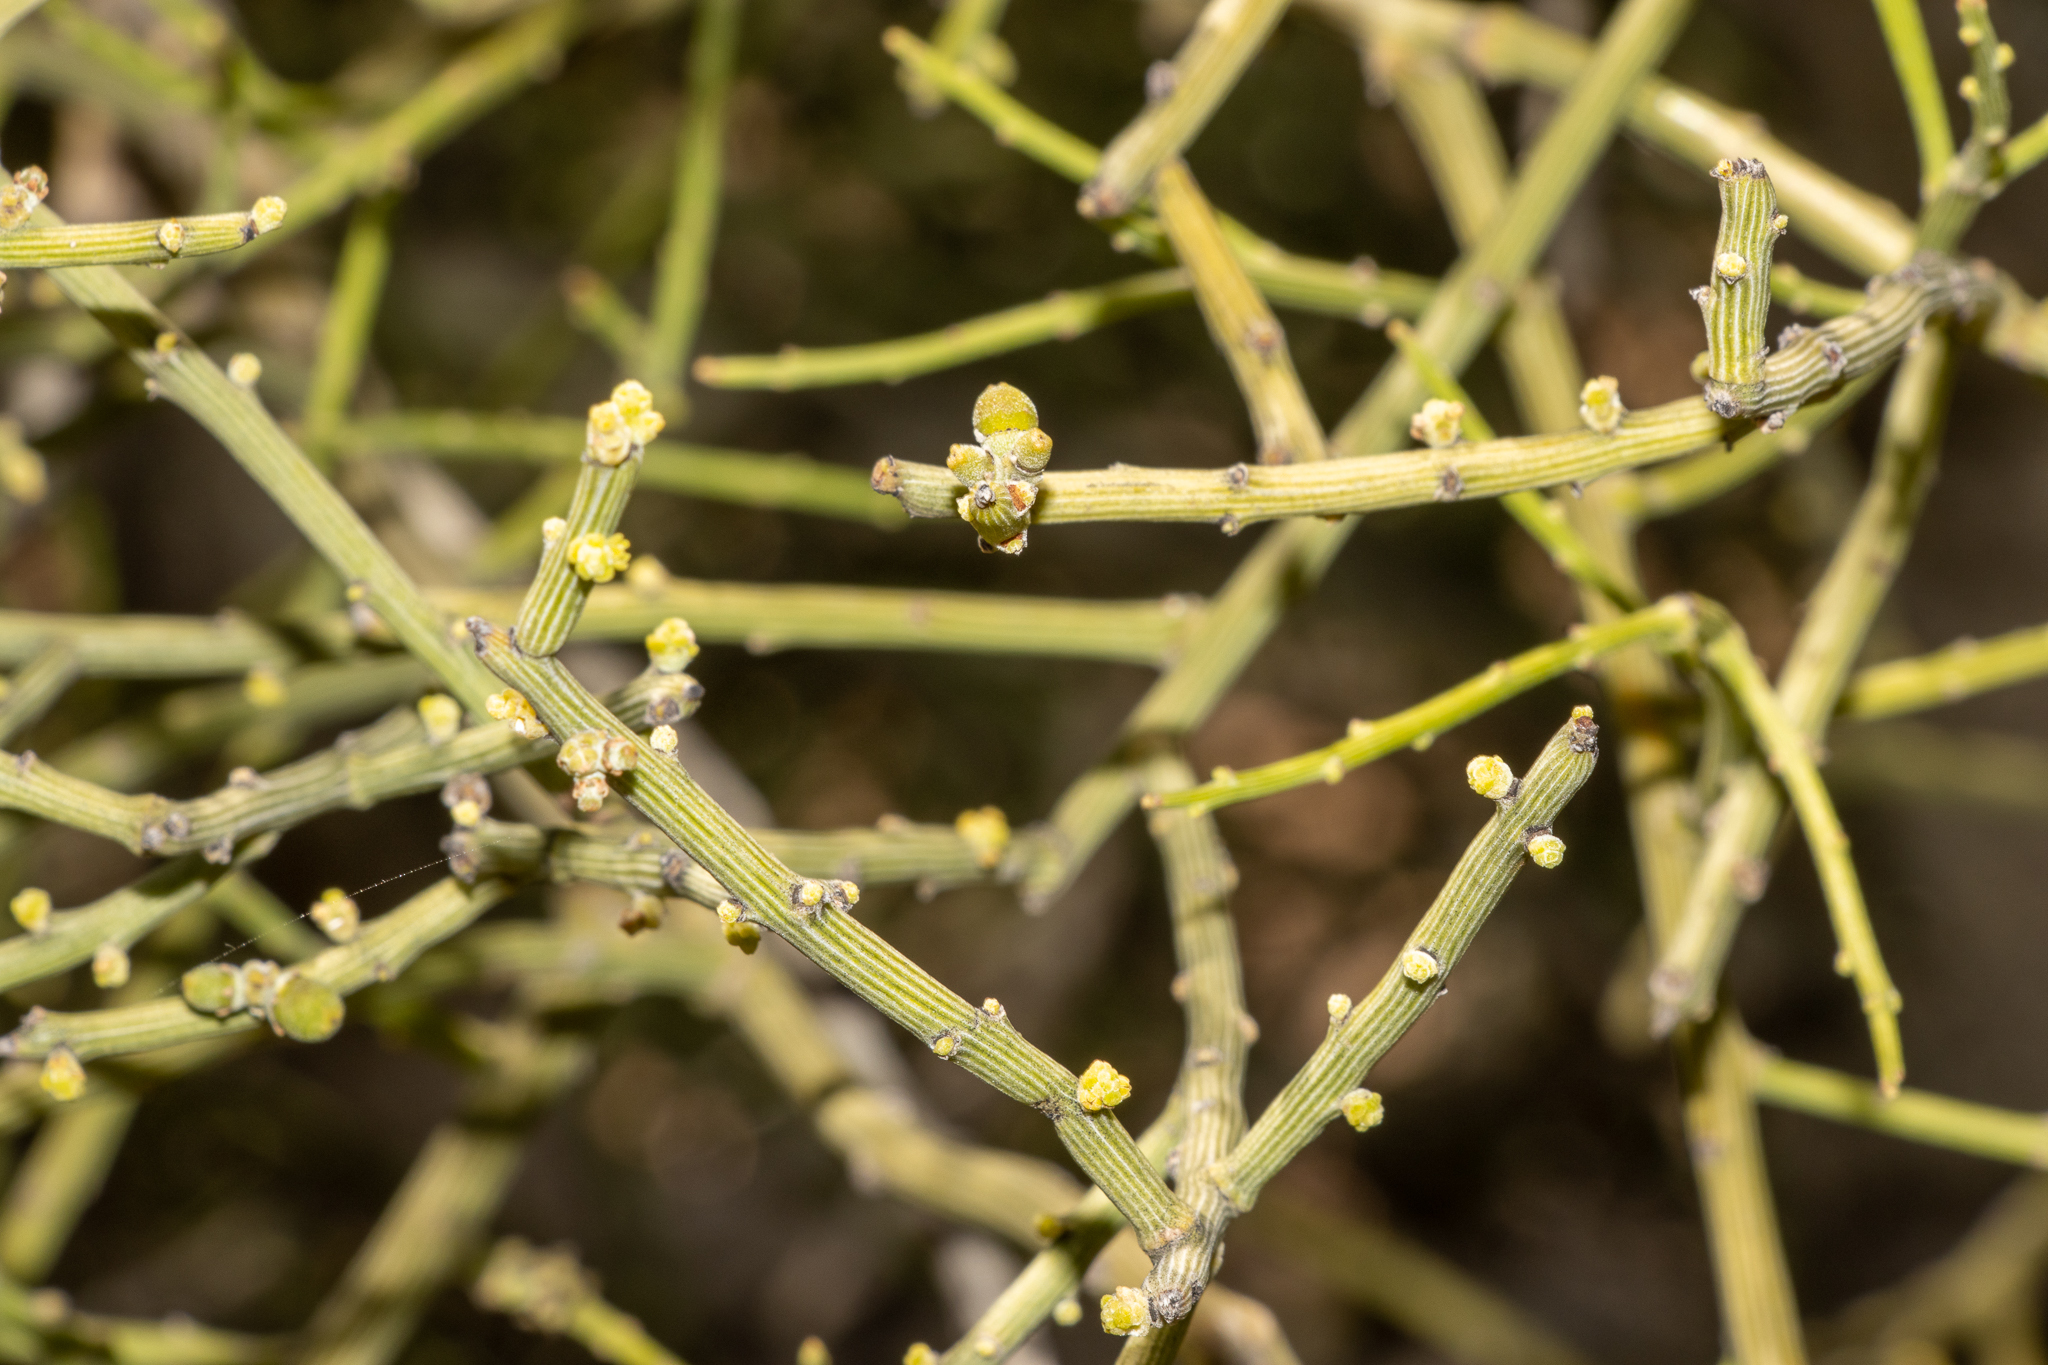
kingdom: Plantae
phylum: Tracheophyta
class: Magnoliopsida
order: Santalales
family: Santalaceae
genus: Exocarpos
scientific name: Exocarpos aphyllus
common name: Leafless ballart
